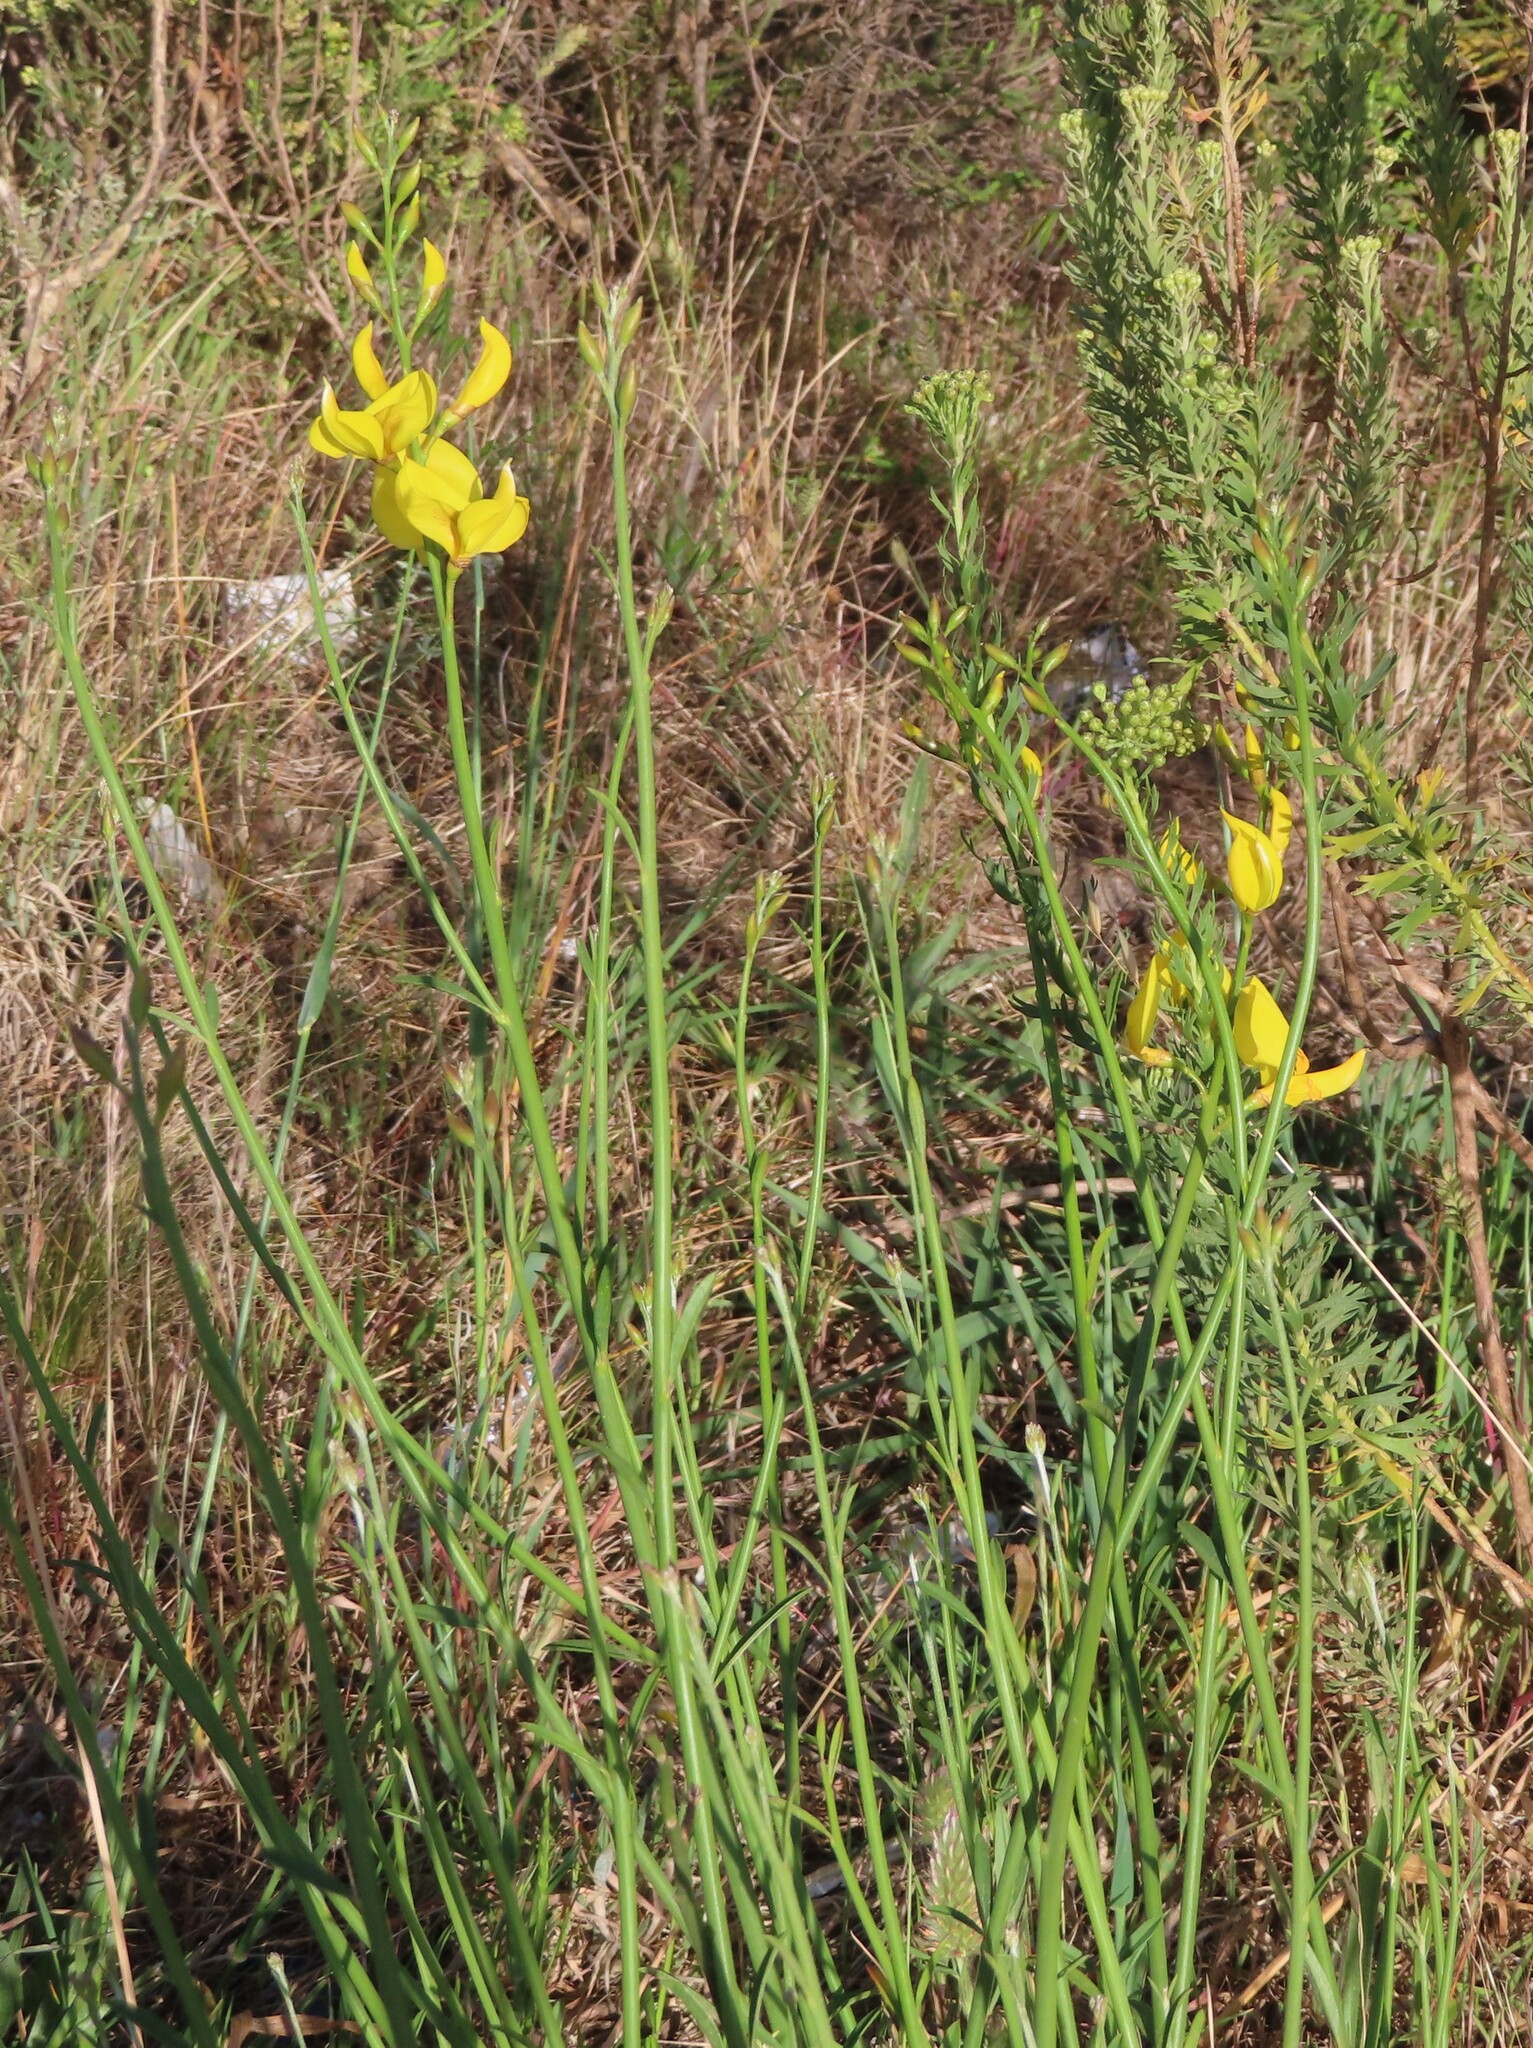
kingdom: Plantae
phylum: Tracheophyta
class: Magnoliopsida
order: Fabales
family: Fabaceae
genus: Spartium
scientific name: Spartium junceum
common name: Spanish broom
